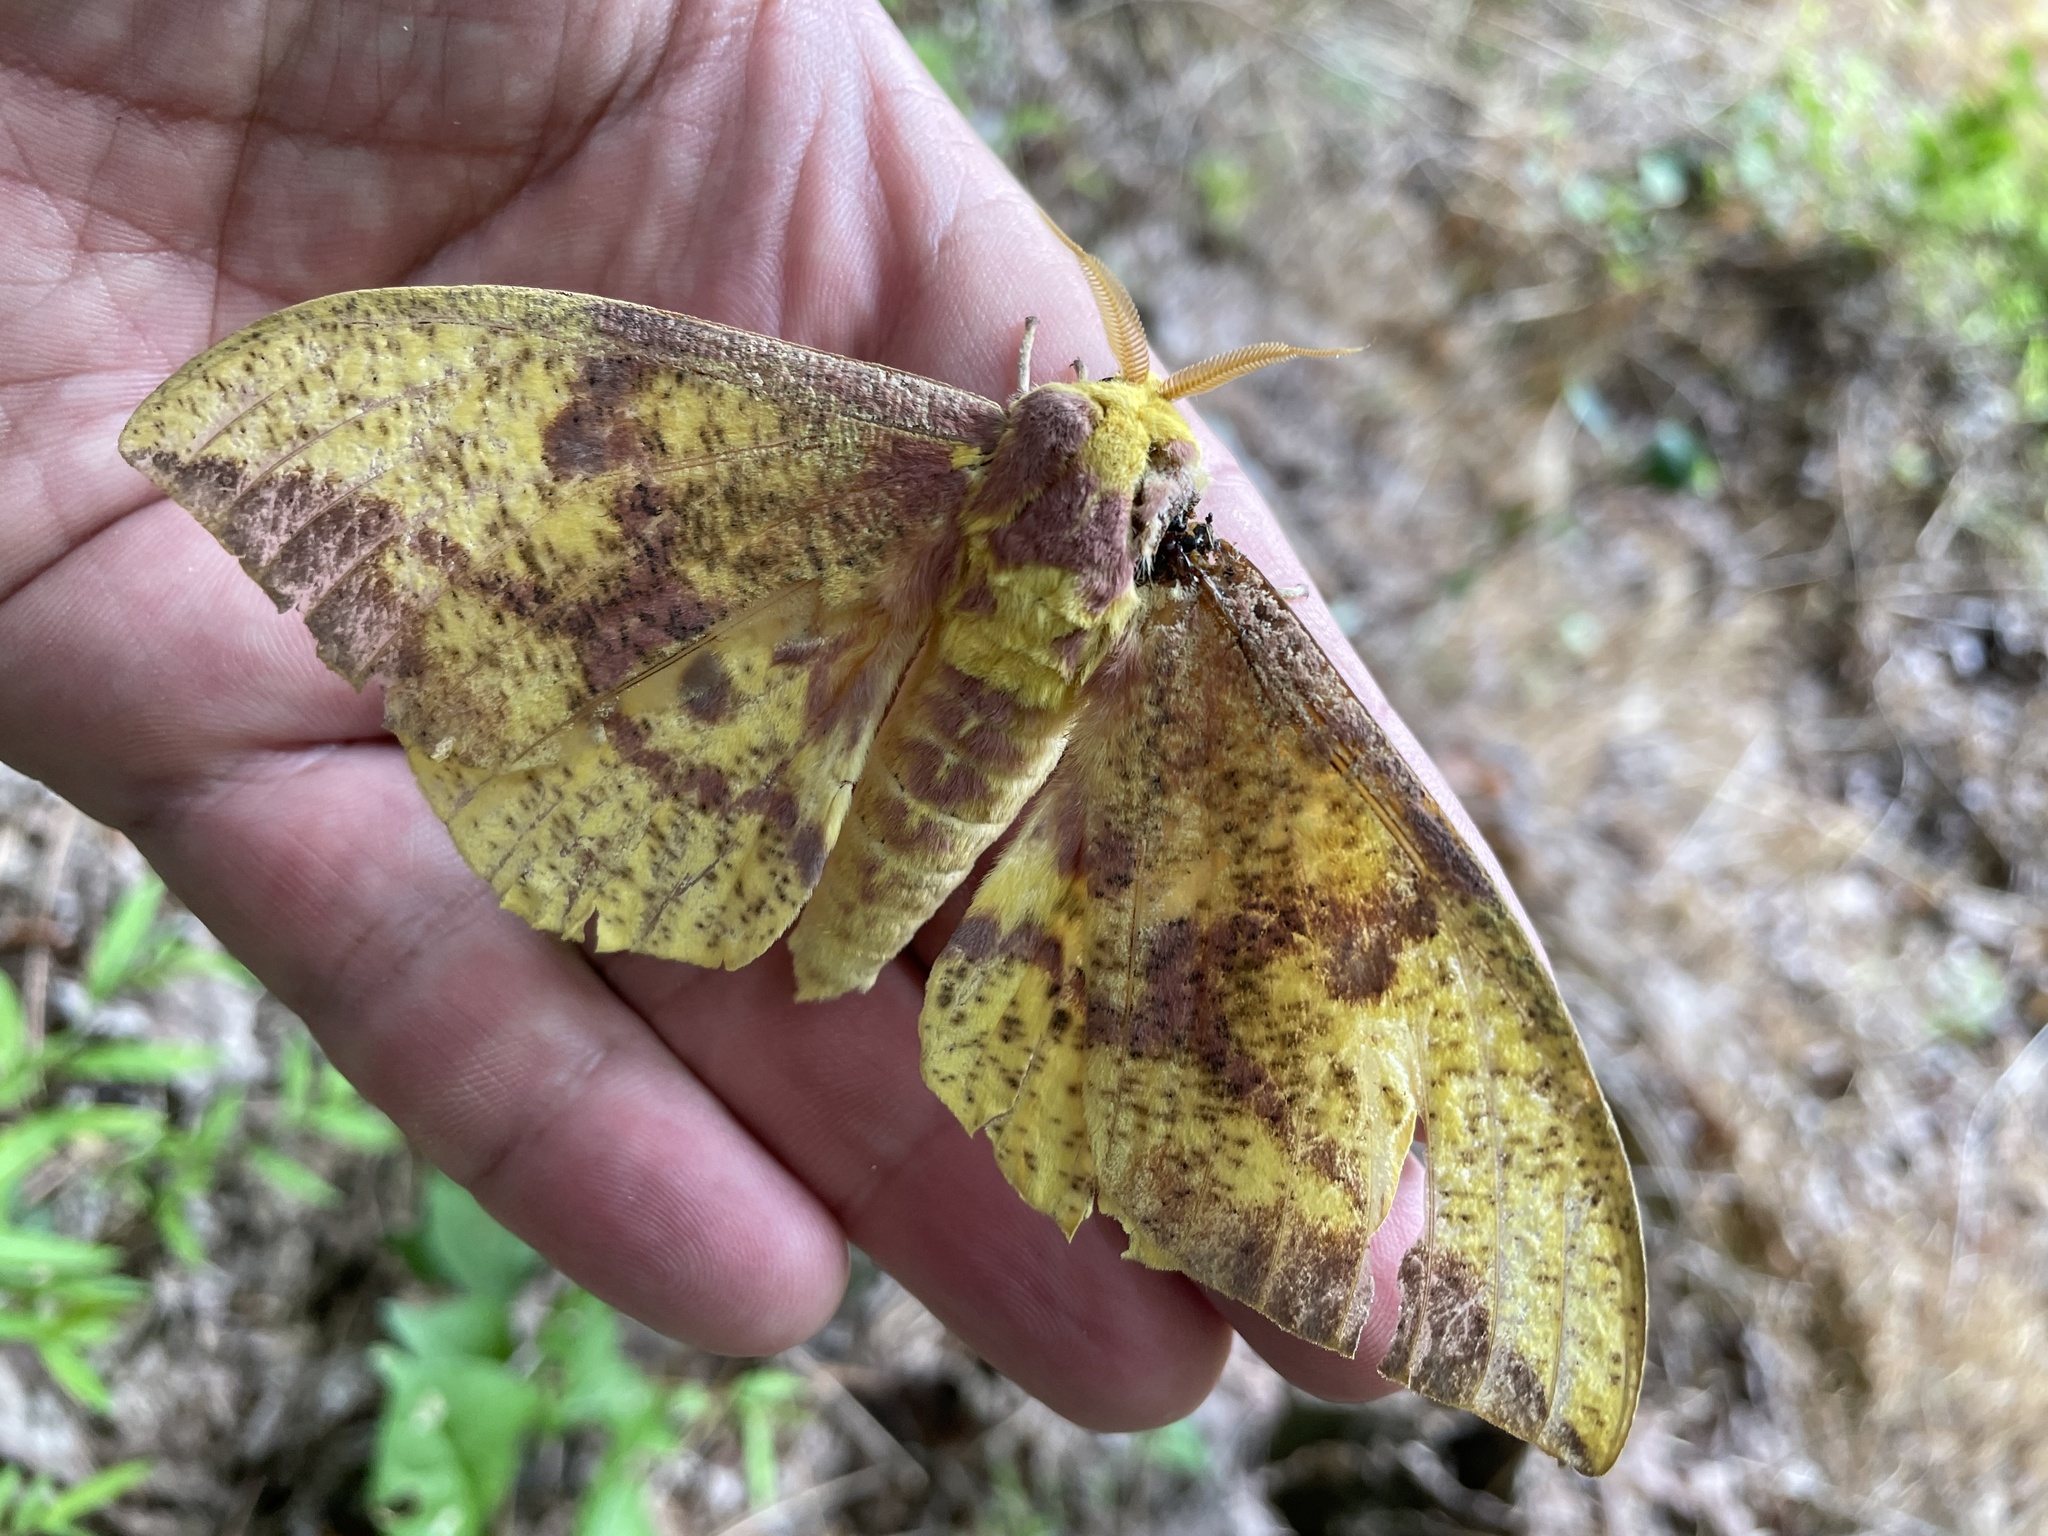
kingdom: Animalia
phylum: Arthropoda
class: Insecta
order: Lepidoptera
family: Saturniidae
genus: Eacles
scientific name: Eacles imperialis
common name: Imperial moth
